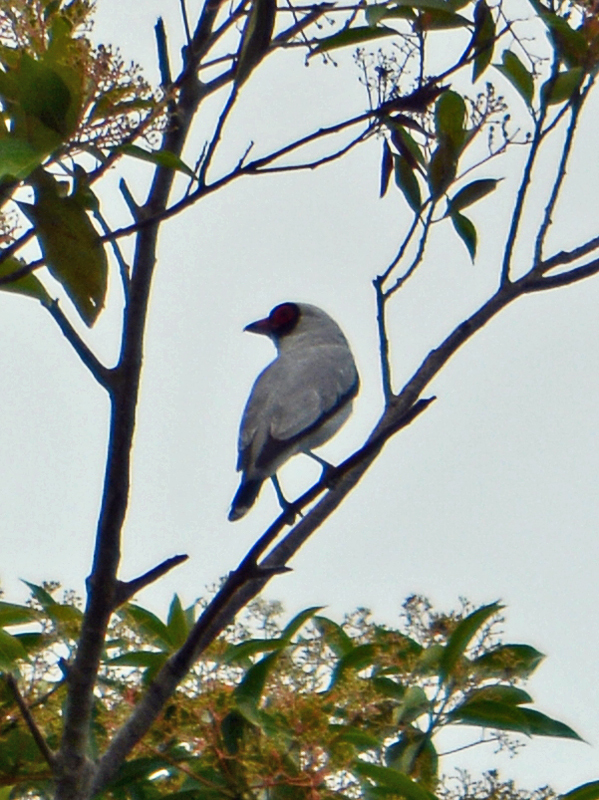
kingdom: Animalia
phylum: Chordata
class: Aves
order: Passeriformes
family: Cotingidae
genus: Tityra
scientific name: Tityra semifasciata
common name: Masked tityra
